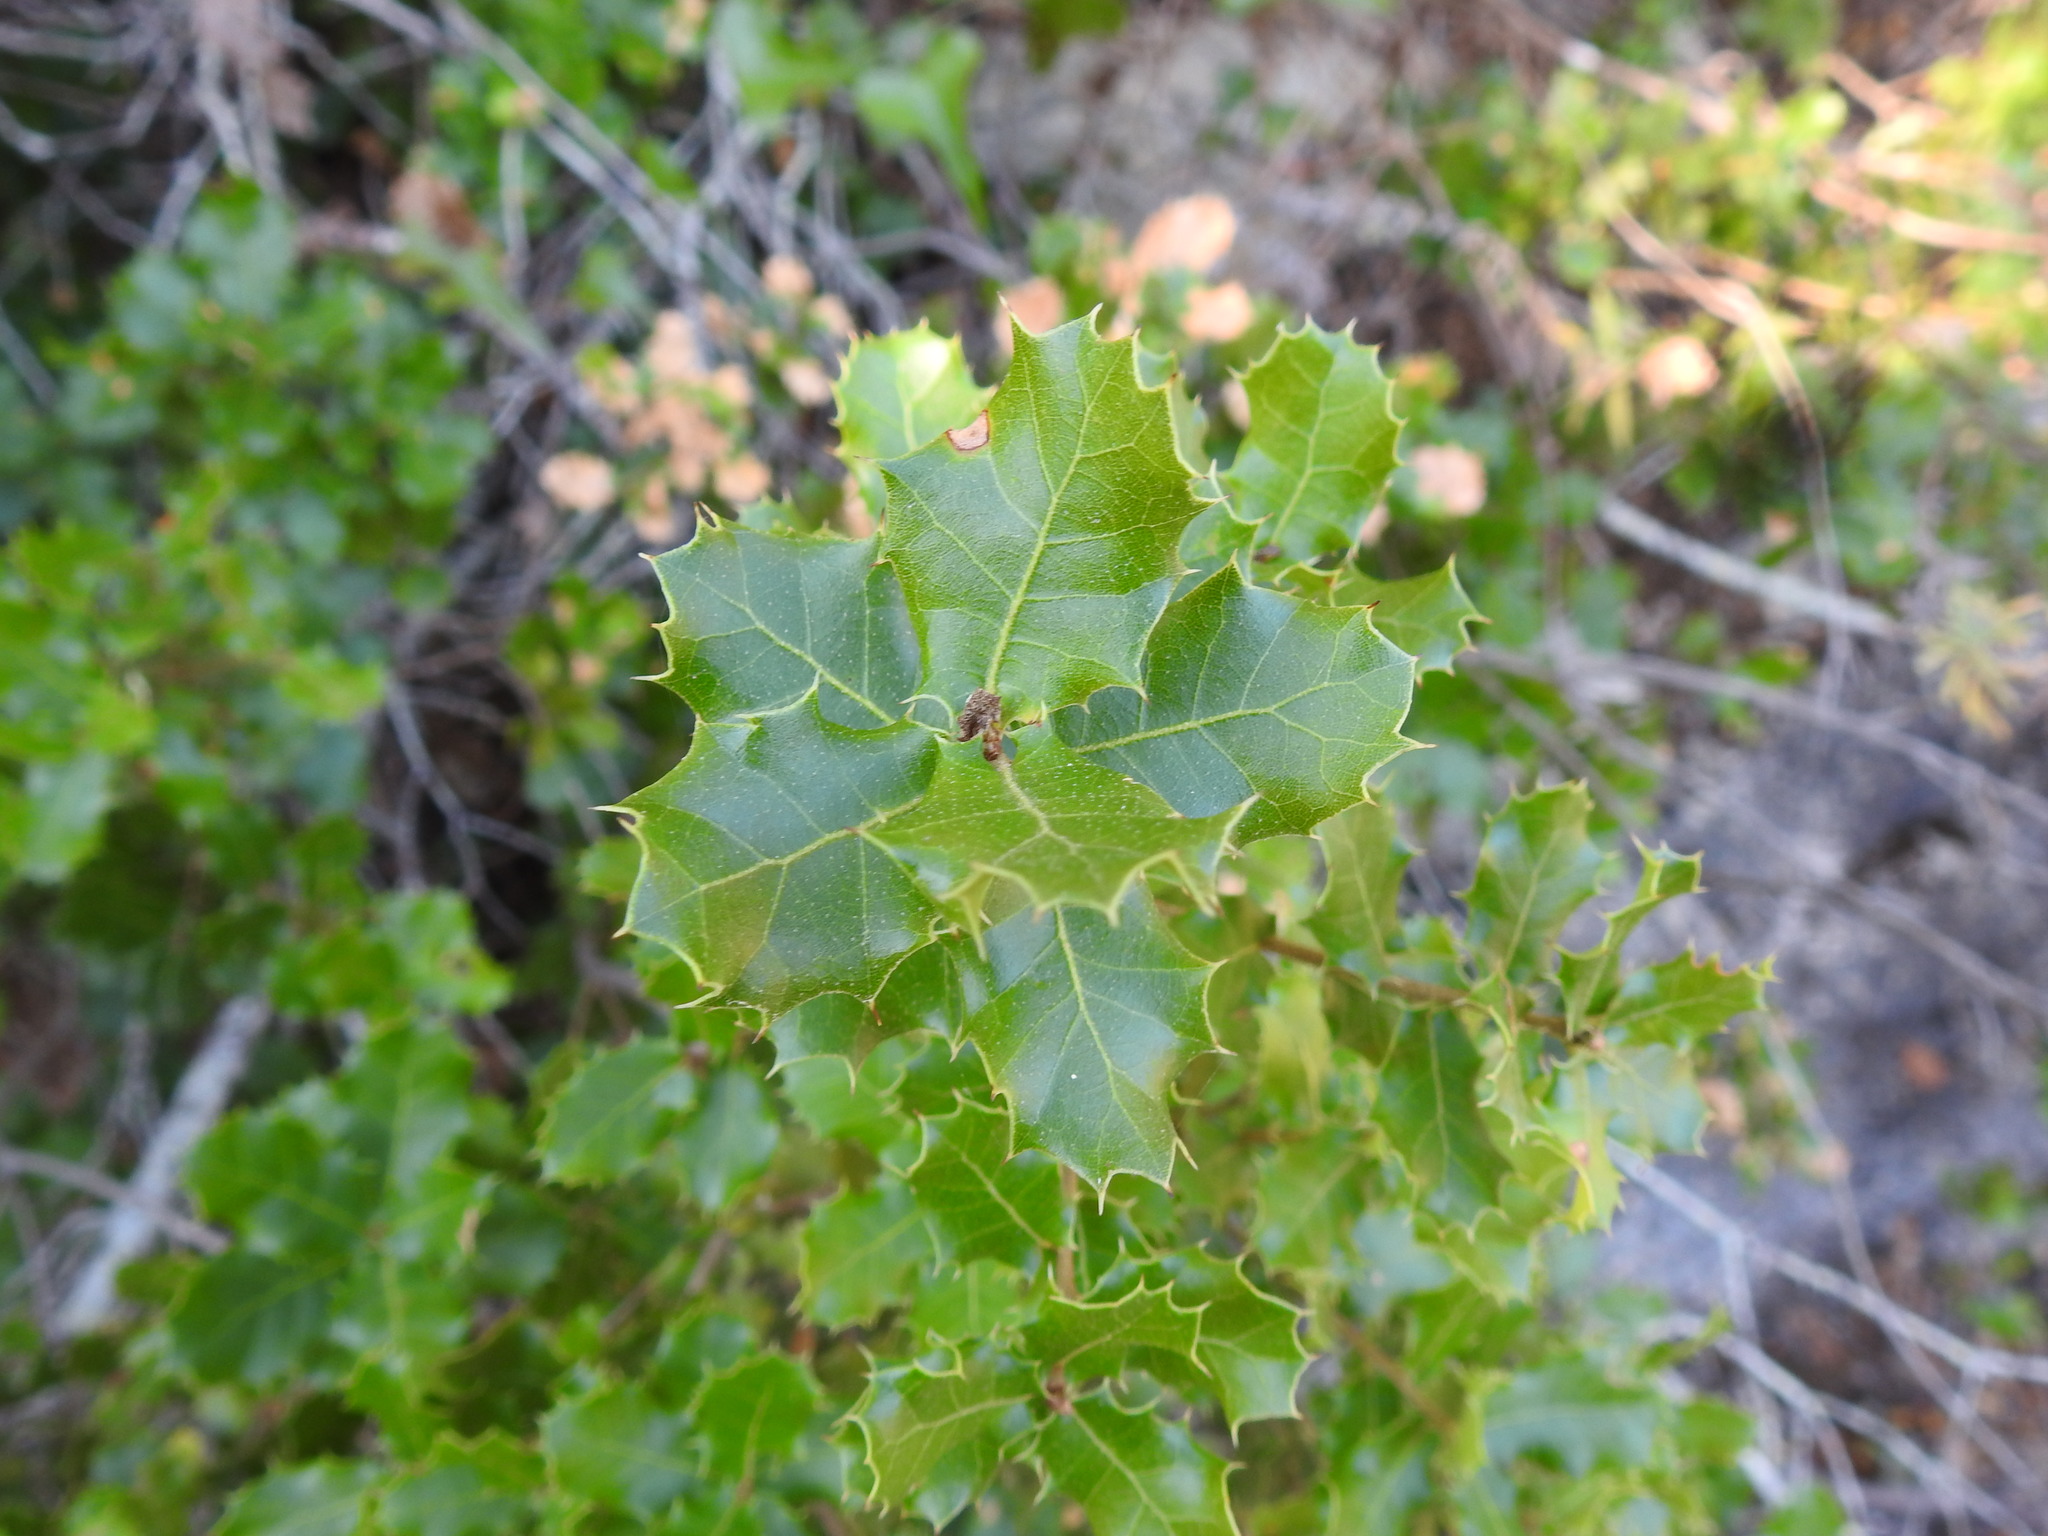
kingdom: Plantae
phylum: Tracheophyta
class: Magnoliopsida
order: Fagales
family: Fagaceae
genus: Quercus
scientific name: Quercus coccifera
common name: Kermes oak
